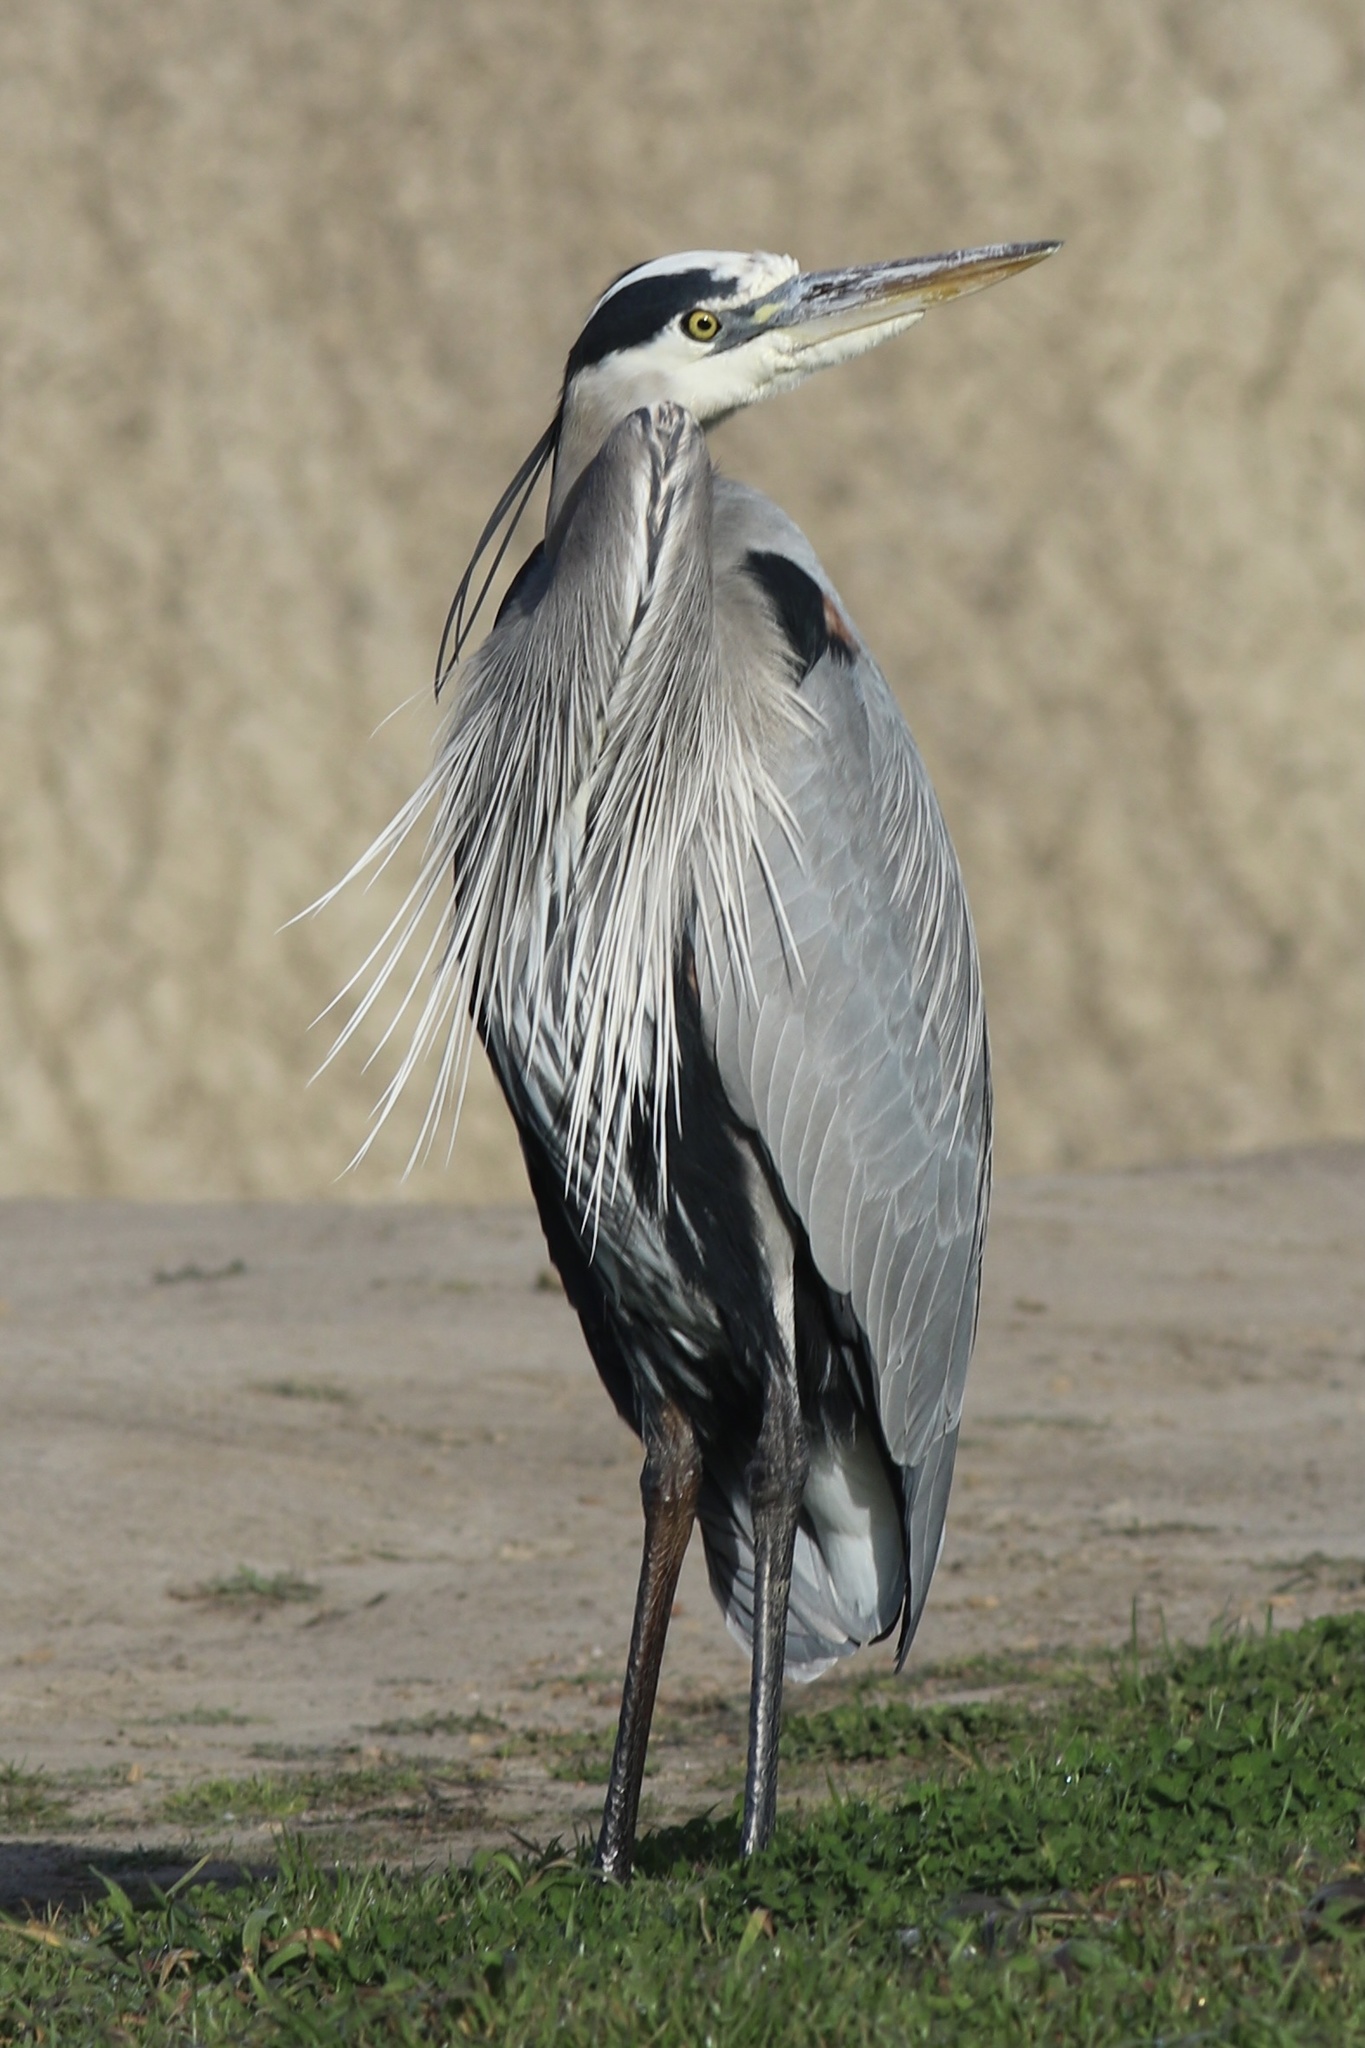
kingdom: Animalia
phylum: Chordata
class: Aves
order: Pelecaniformes
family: Ardeidae
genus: Ardea
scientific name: Ardea herodias
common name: Great blue heron
